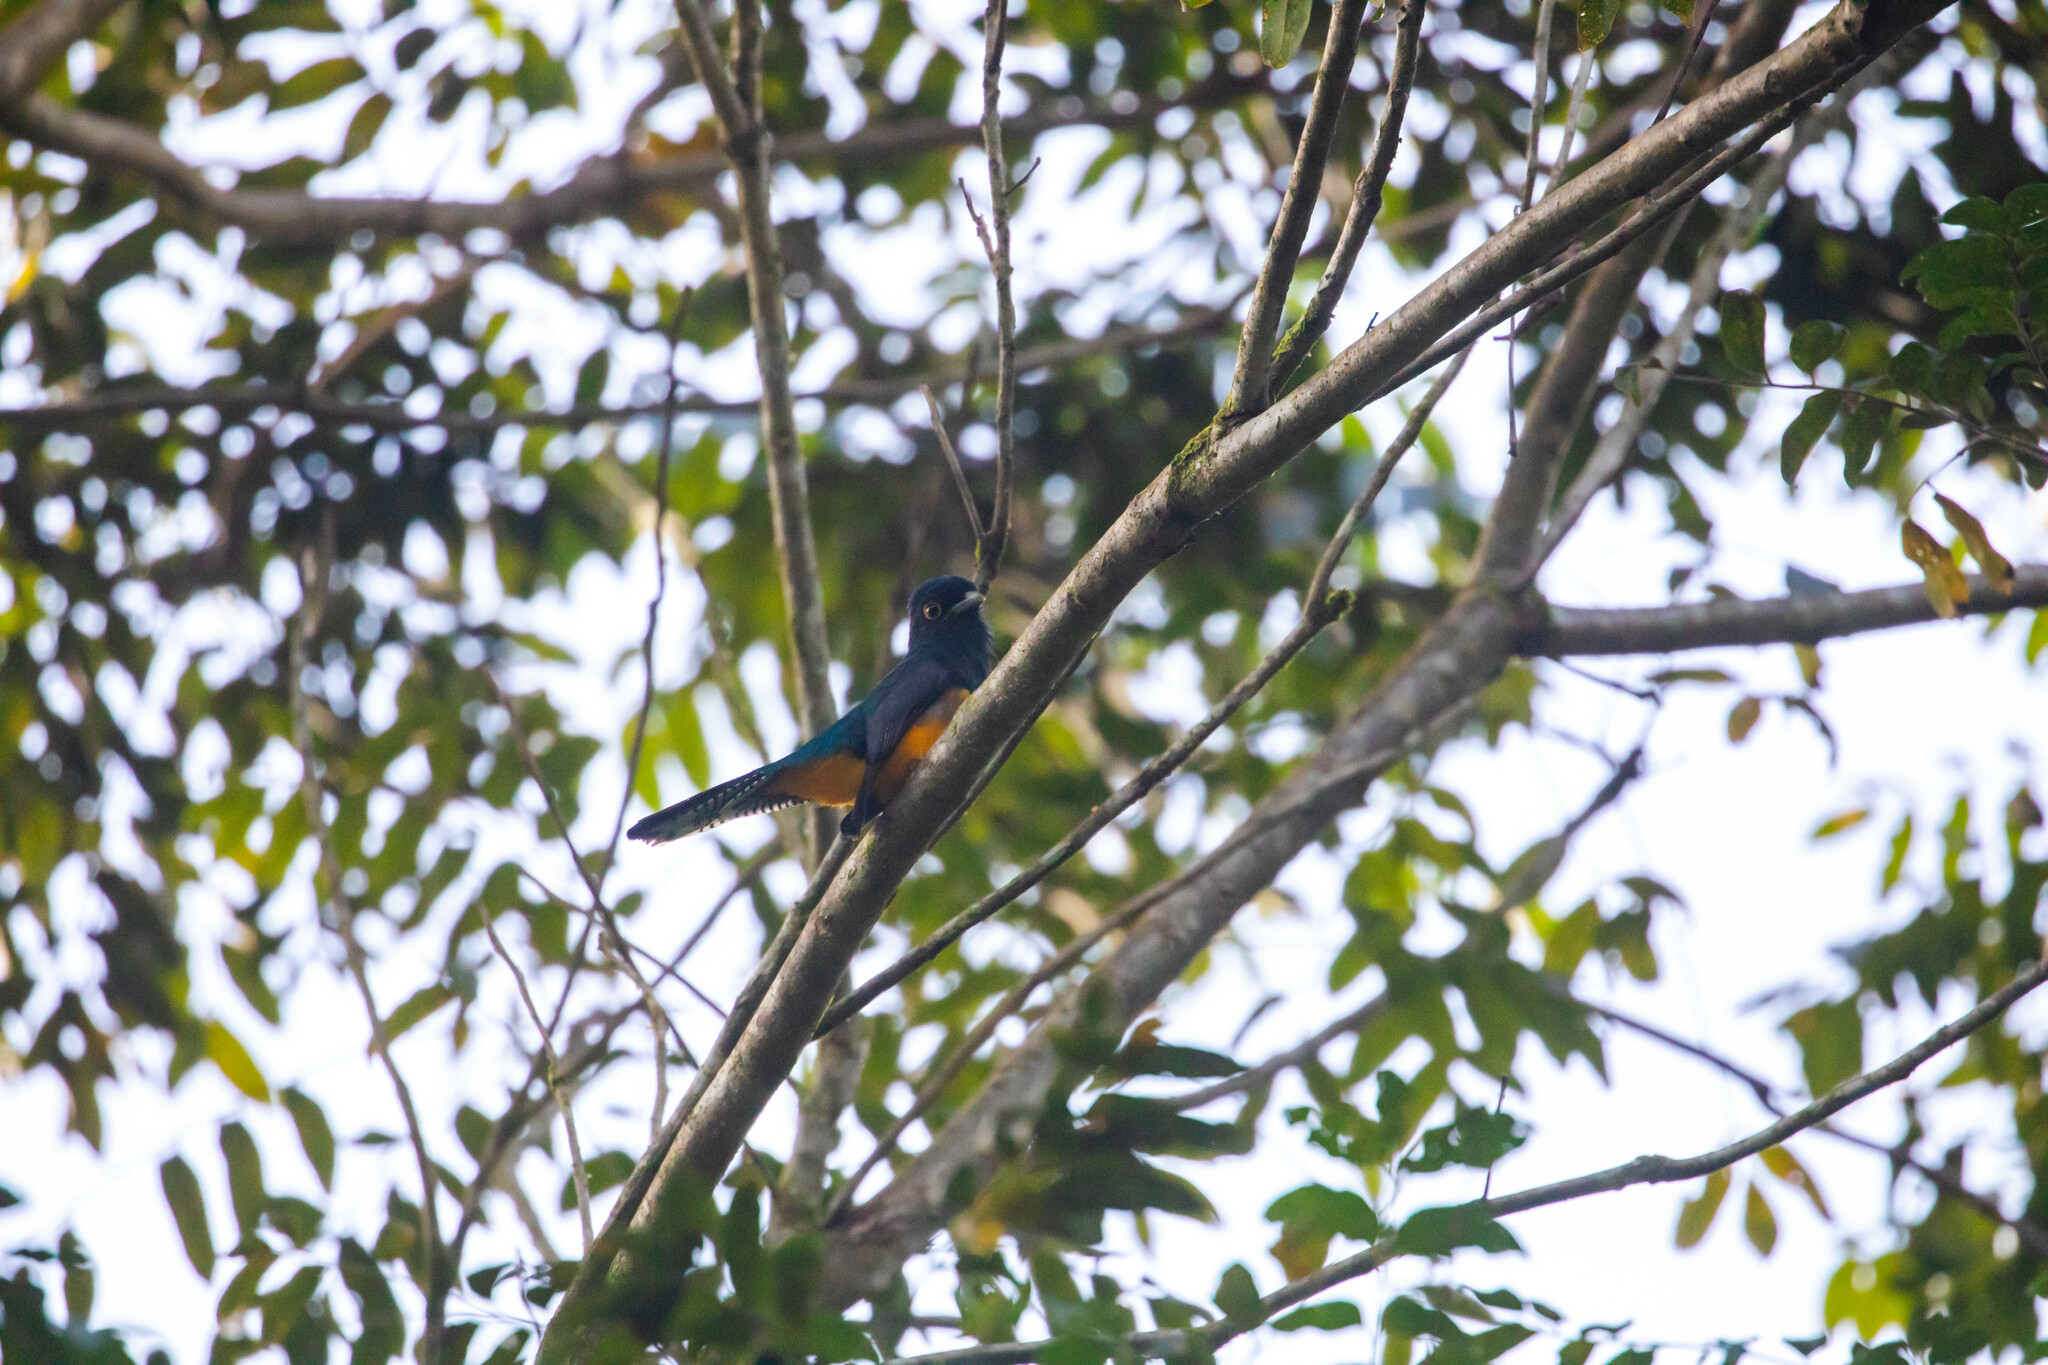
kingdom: Animalia
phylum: Chordata
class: Aves
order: Trogoniformes
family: Trogonidae
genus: Trogon
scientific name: Trogon violaceus
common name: Guianan trogon
